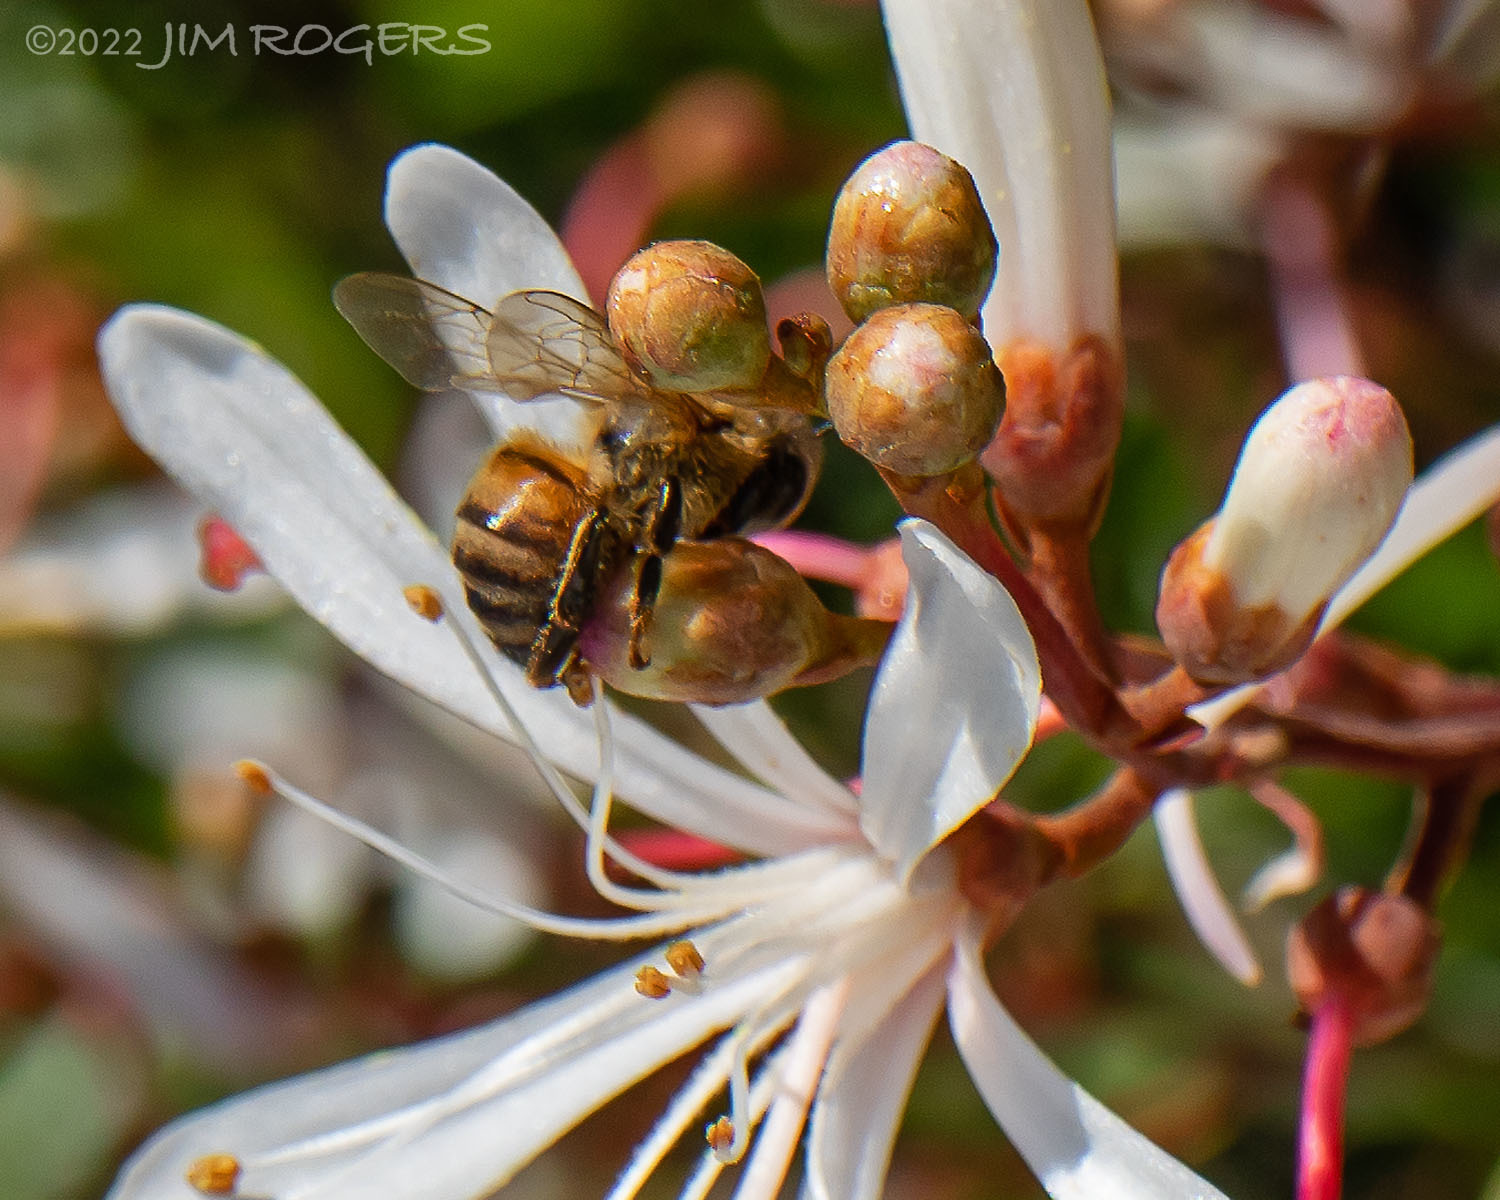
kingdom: Plantae
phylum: Tracheophyta
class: Magnoliopsida
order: Ericales
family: Ericaceae
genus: Bejaria
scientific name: Bejaria racemosa
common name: Tarflower
